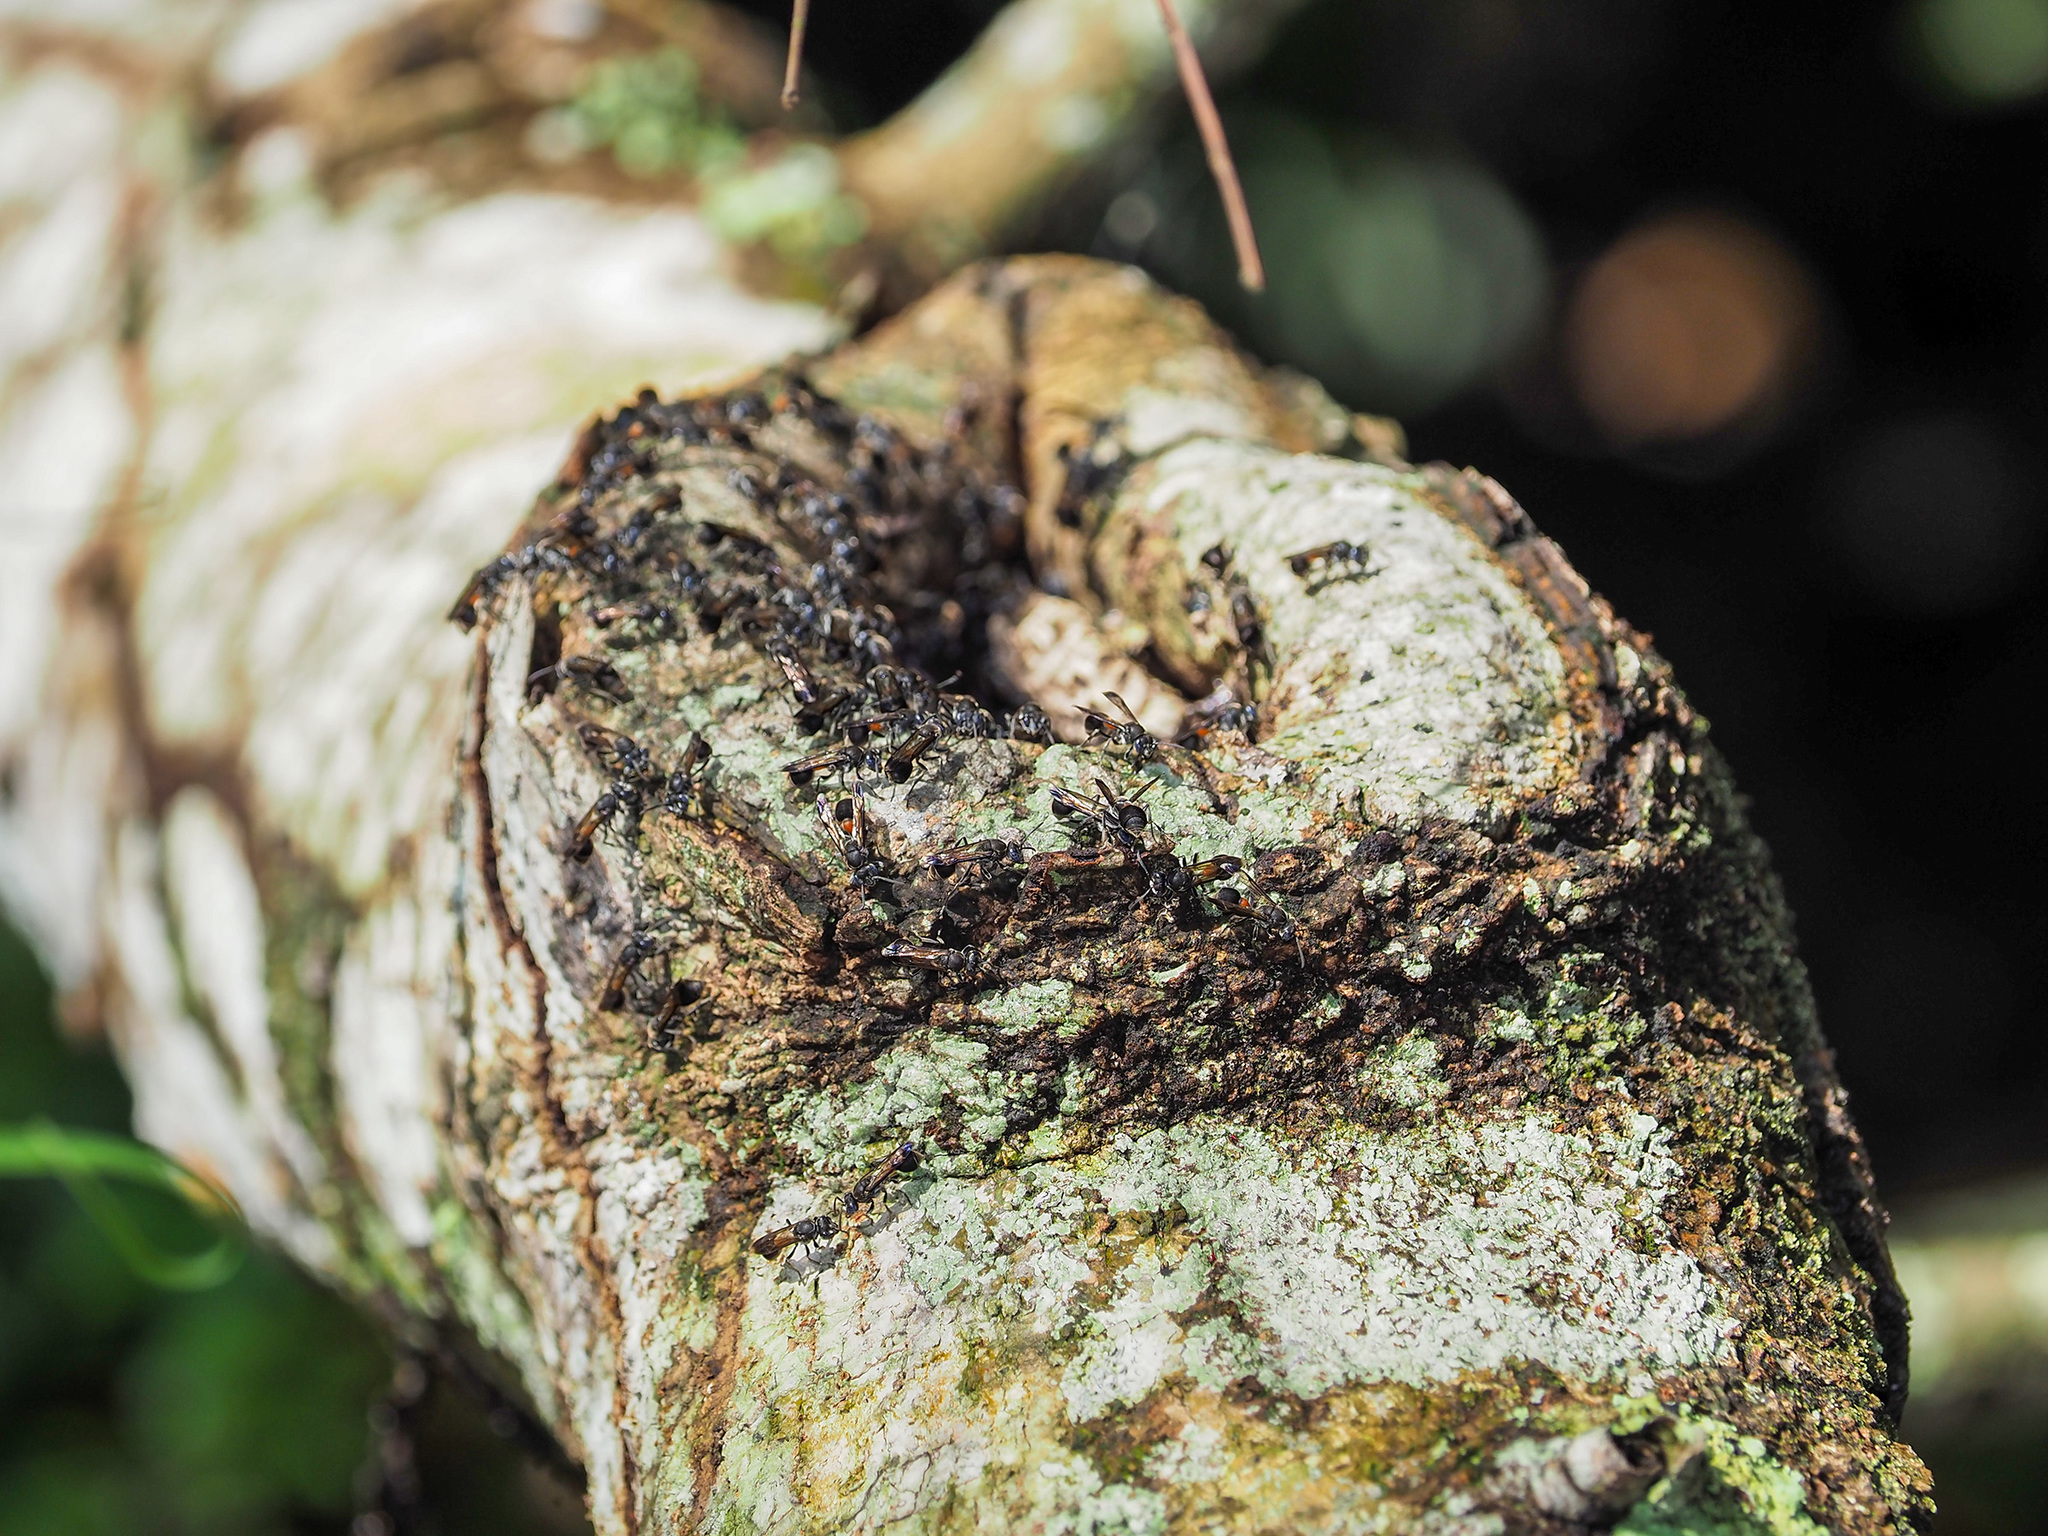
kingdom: Animalia
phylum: Arthropoda
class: Insecta
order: Hymenoptera
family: Vespidae
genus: Ropalidia
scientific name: Ropalidia sumatrae
